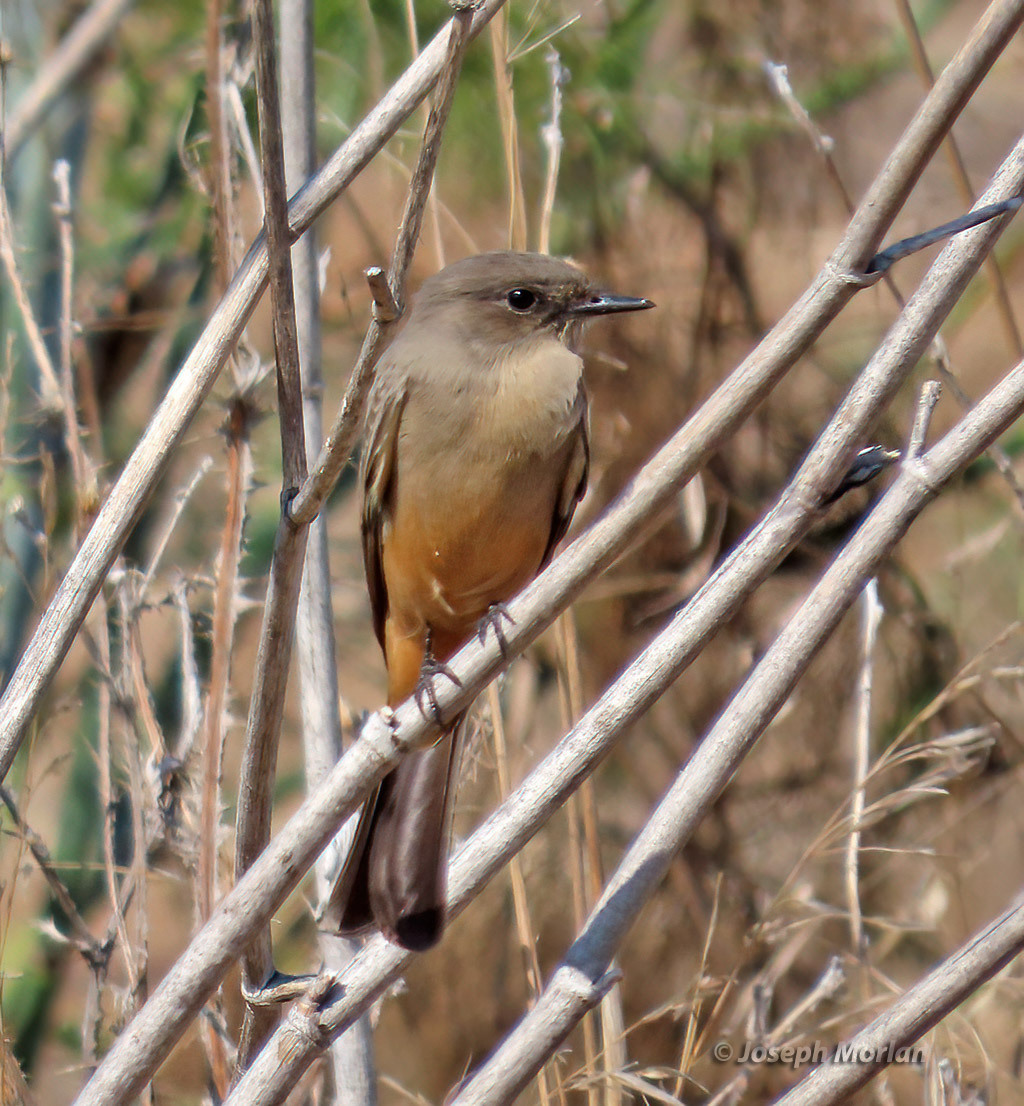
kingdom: Animalia
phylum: Chordata
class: Aves
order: Passeriformes
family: Tyrannidae
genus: Sayornis
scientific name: Sayornis saya
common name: Say's phoebe
